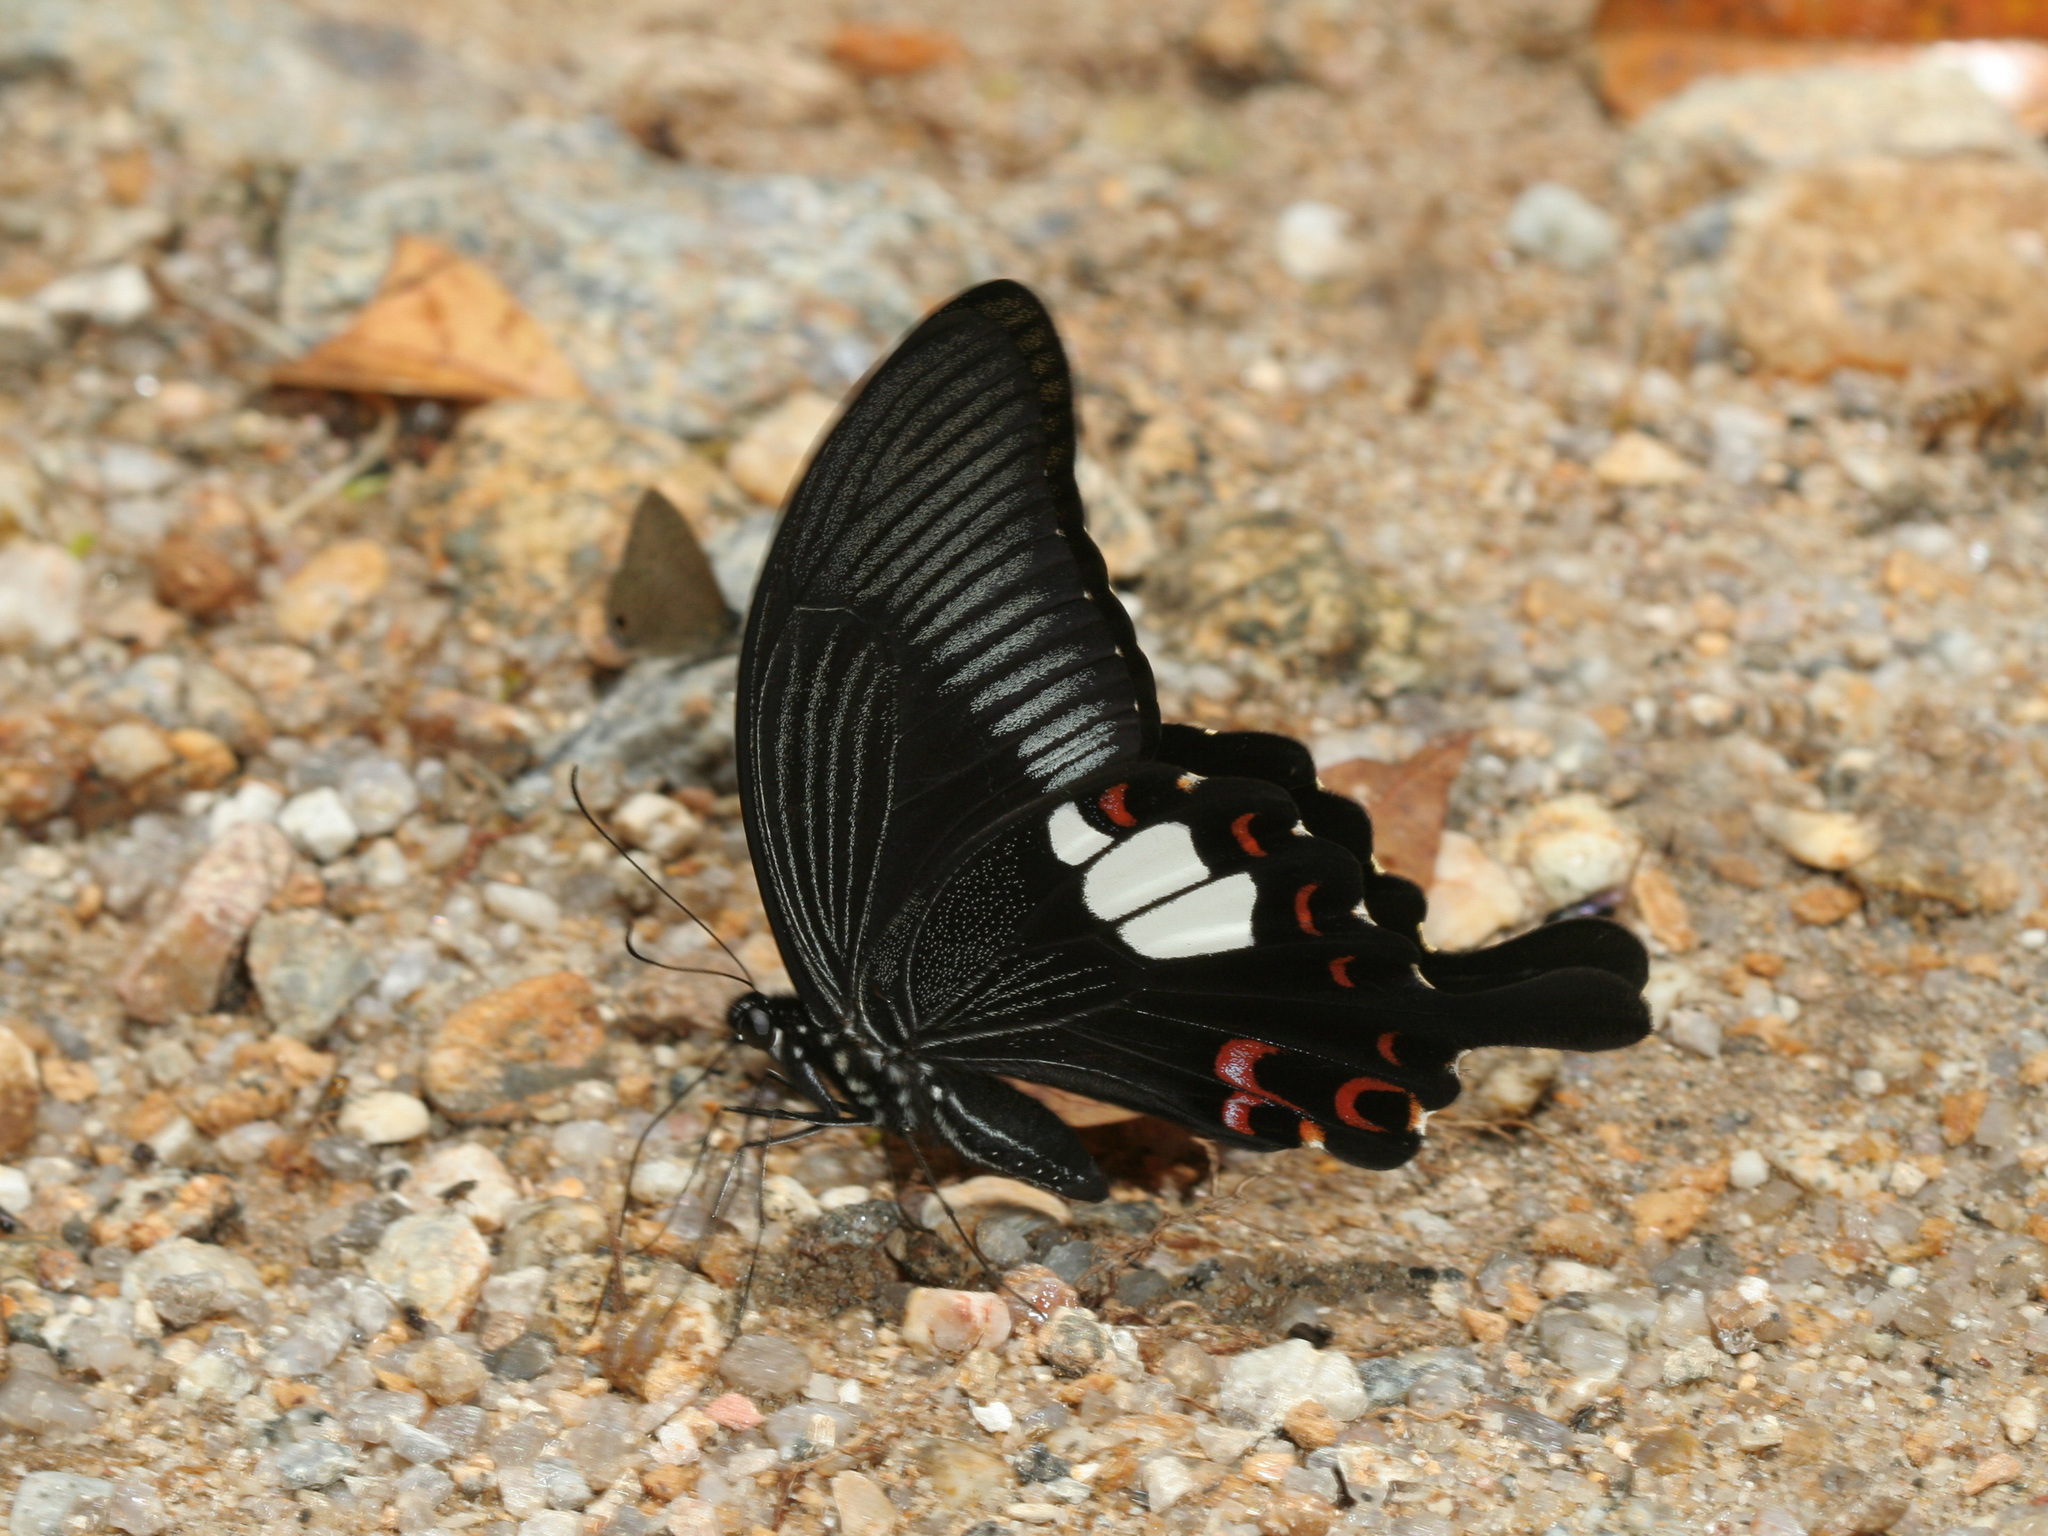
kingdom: Animalia
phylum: Arthropoda
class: Insecta
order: Lepidoptera
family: Papilionidae
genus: Papilio
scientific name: Papilio helenus
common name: Red helen
